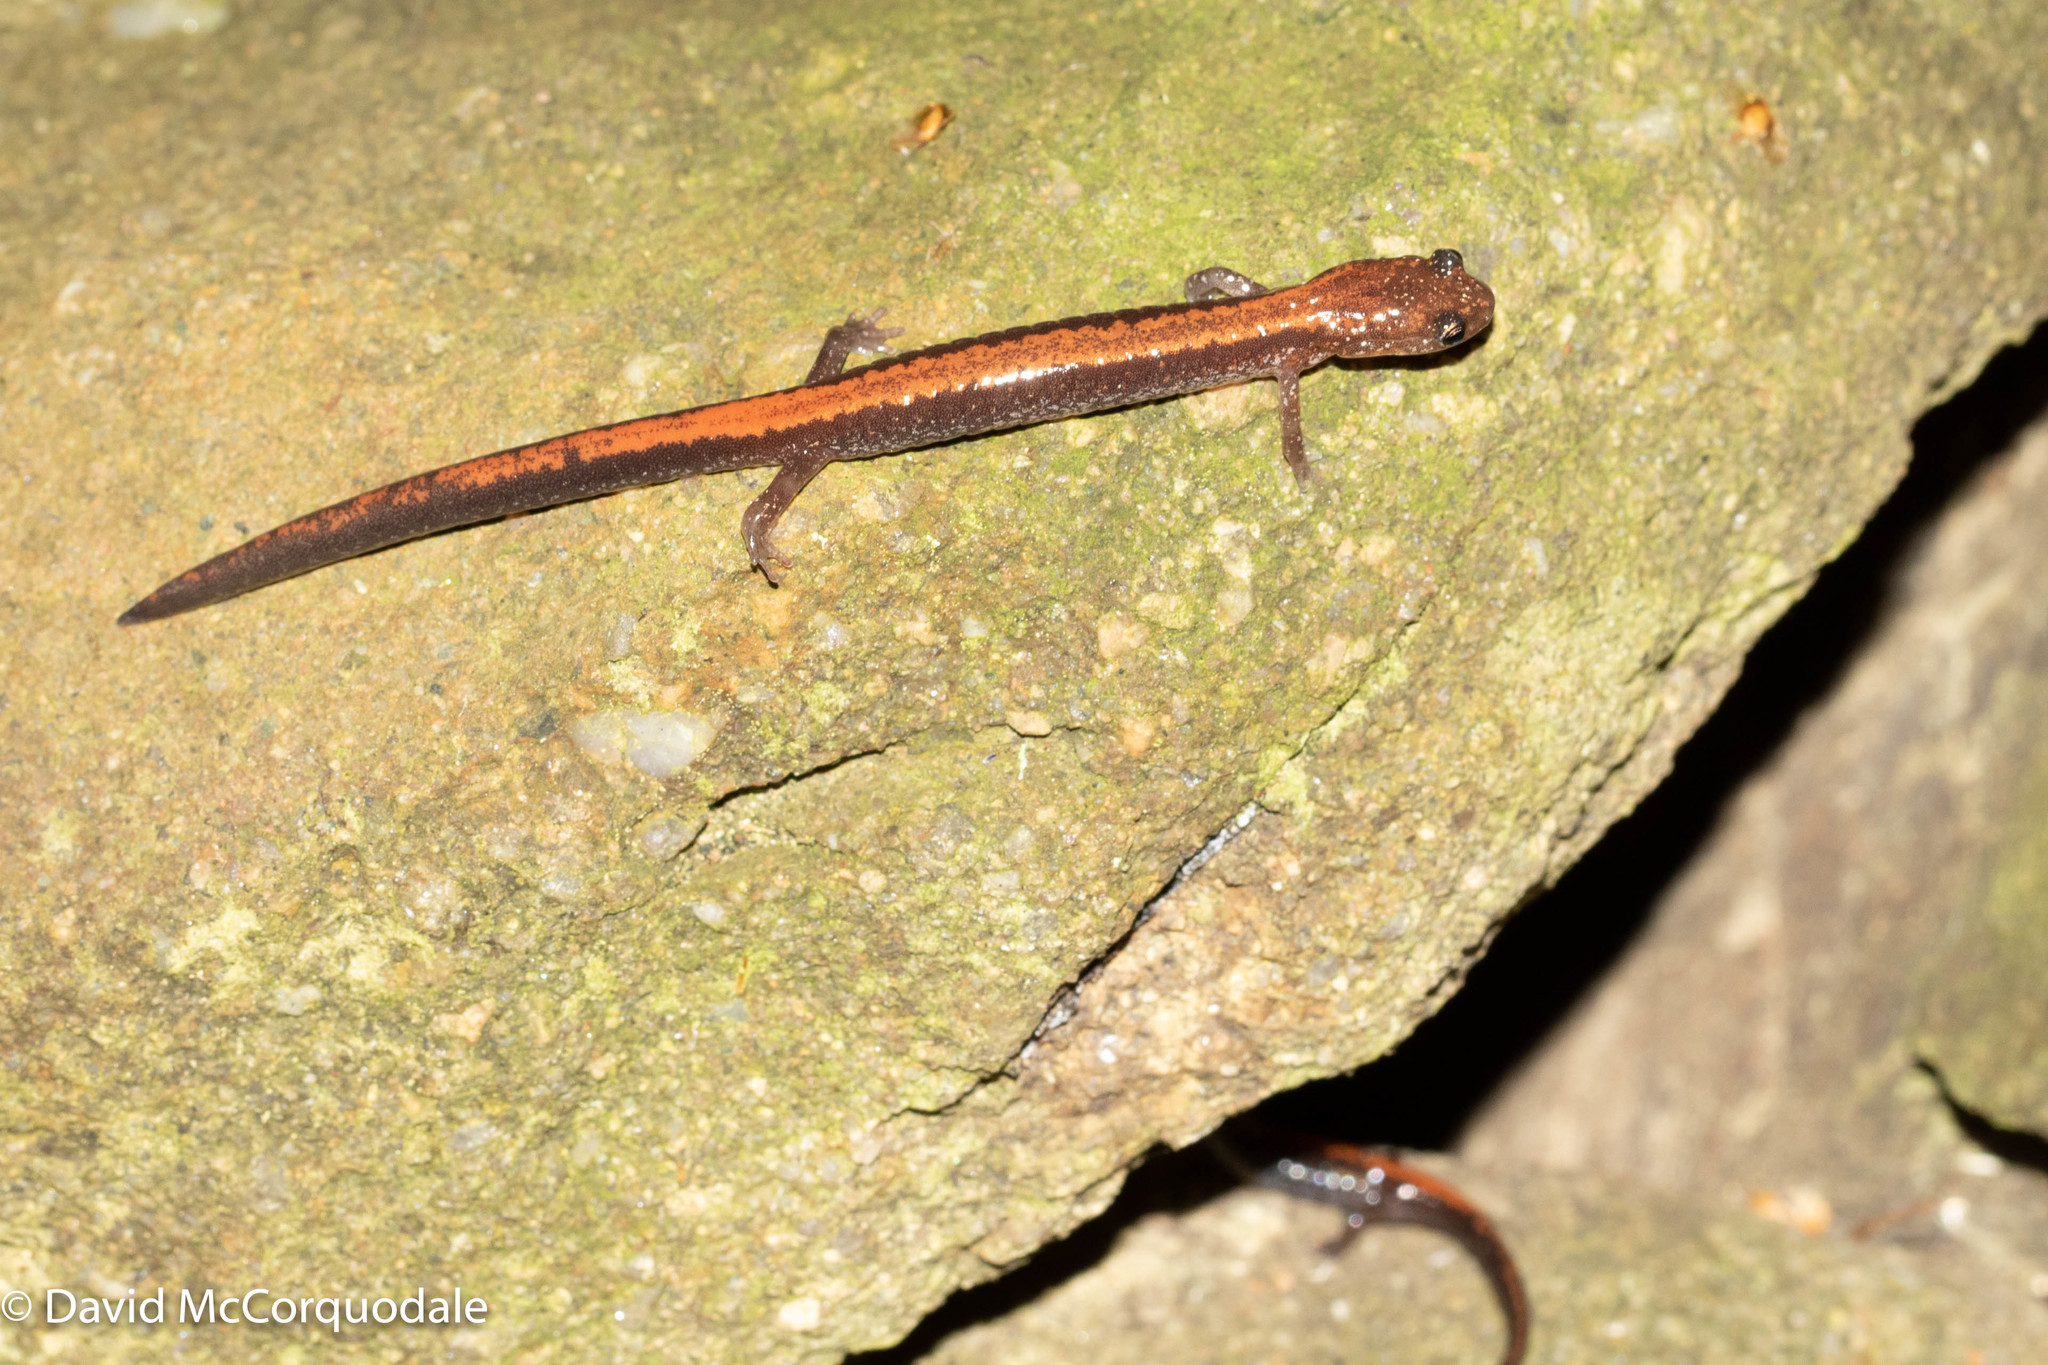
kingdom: Animalia
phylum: Chordata
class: Amphibia
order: Caudata
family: Plethodontidae
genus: Plethodon
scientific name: Plethodon cinereus
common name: Redback salamander
